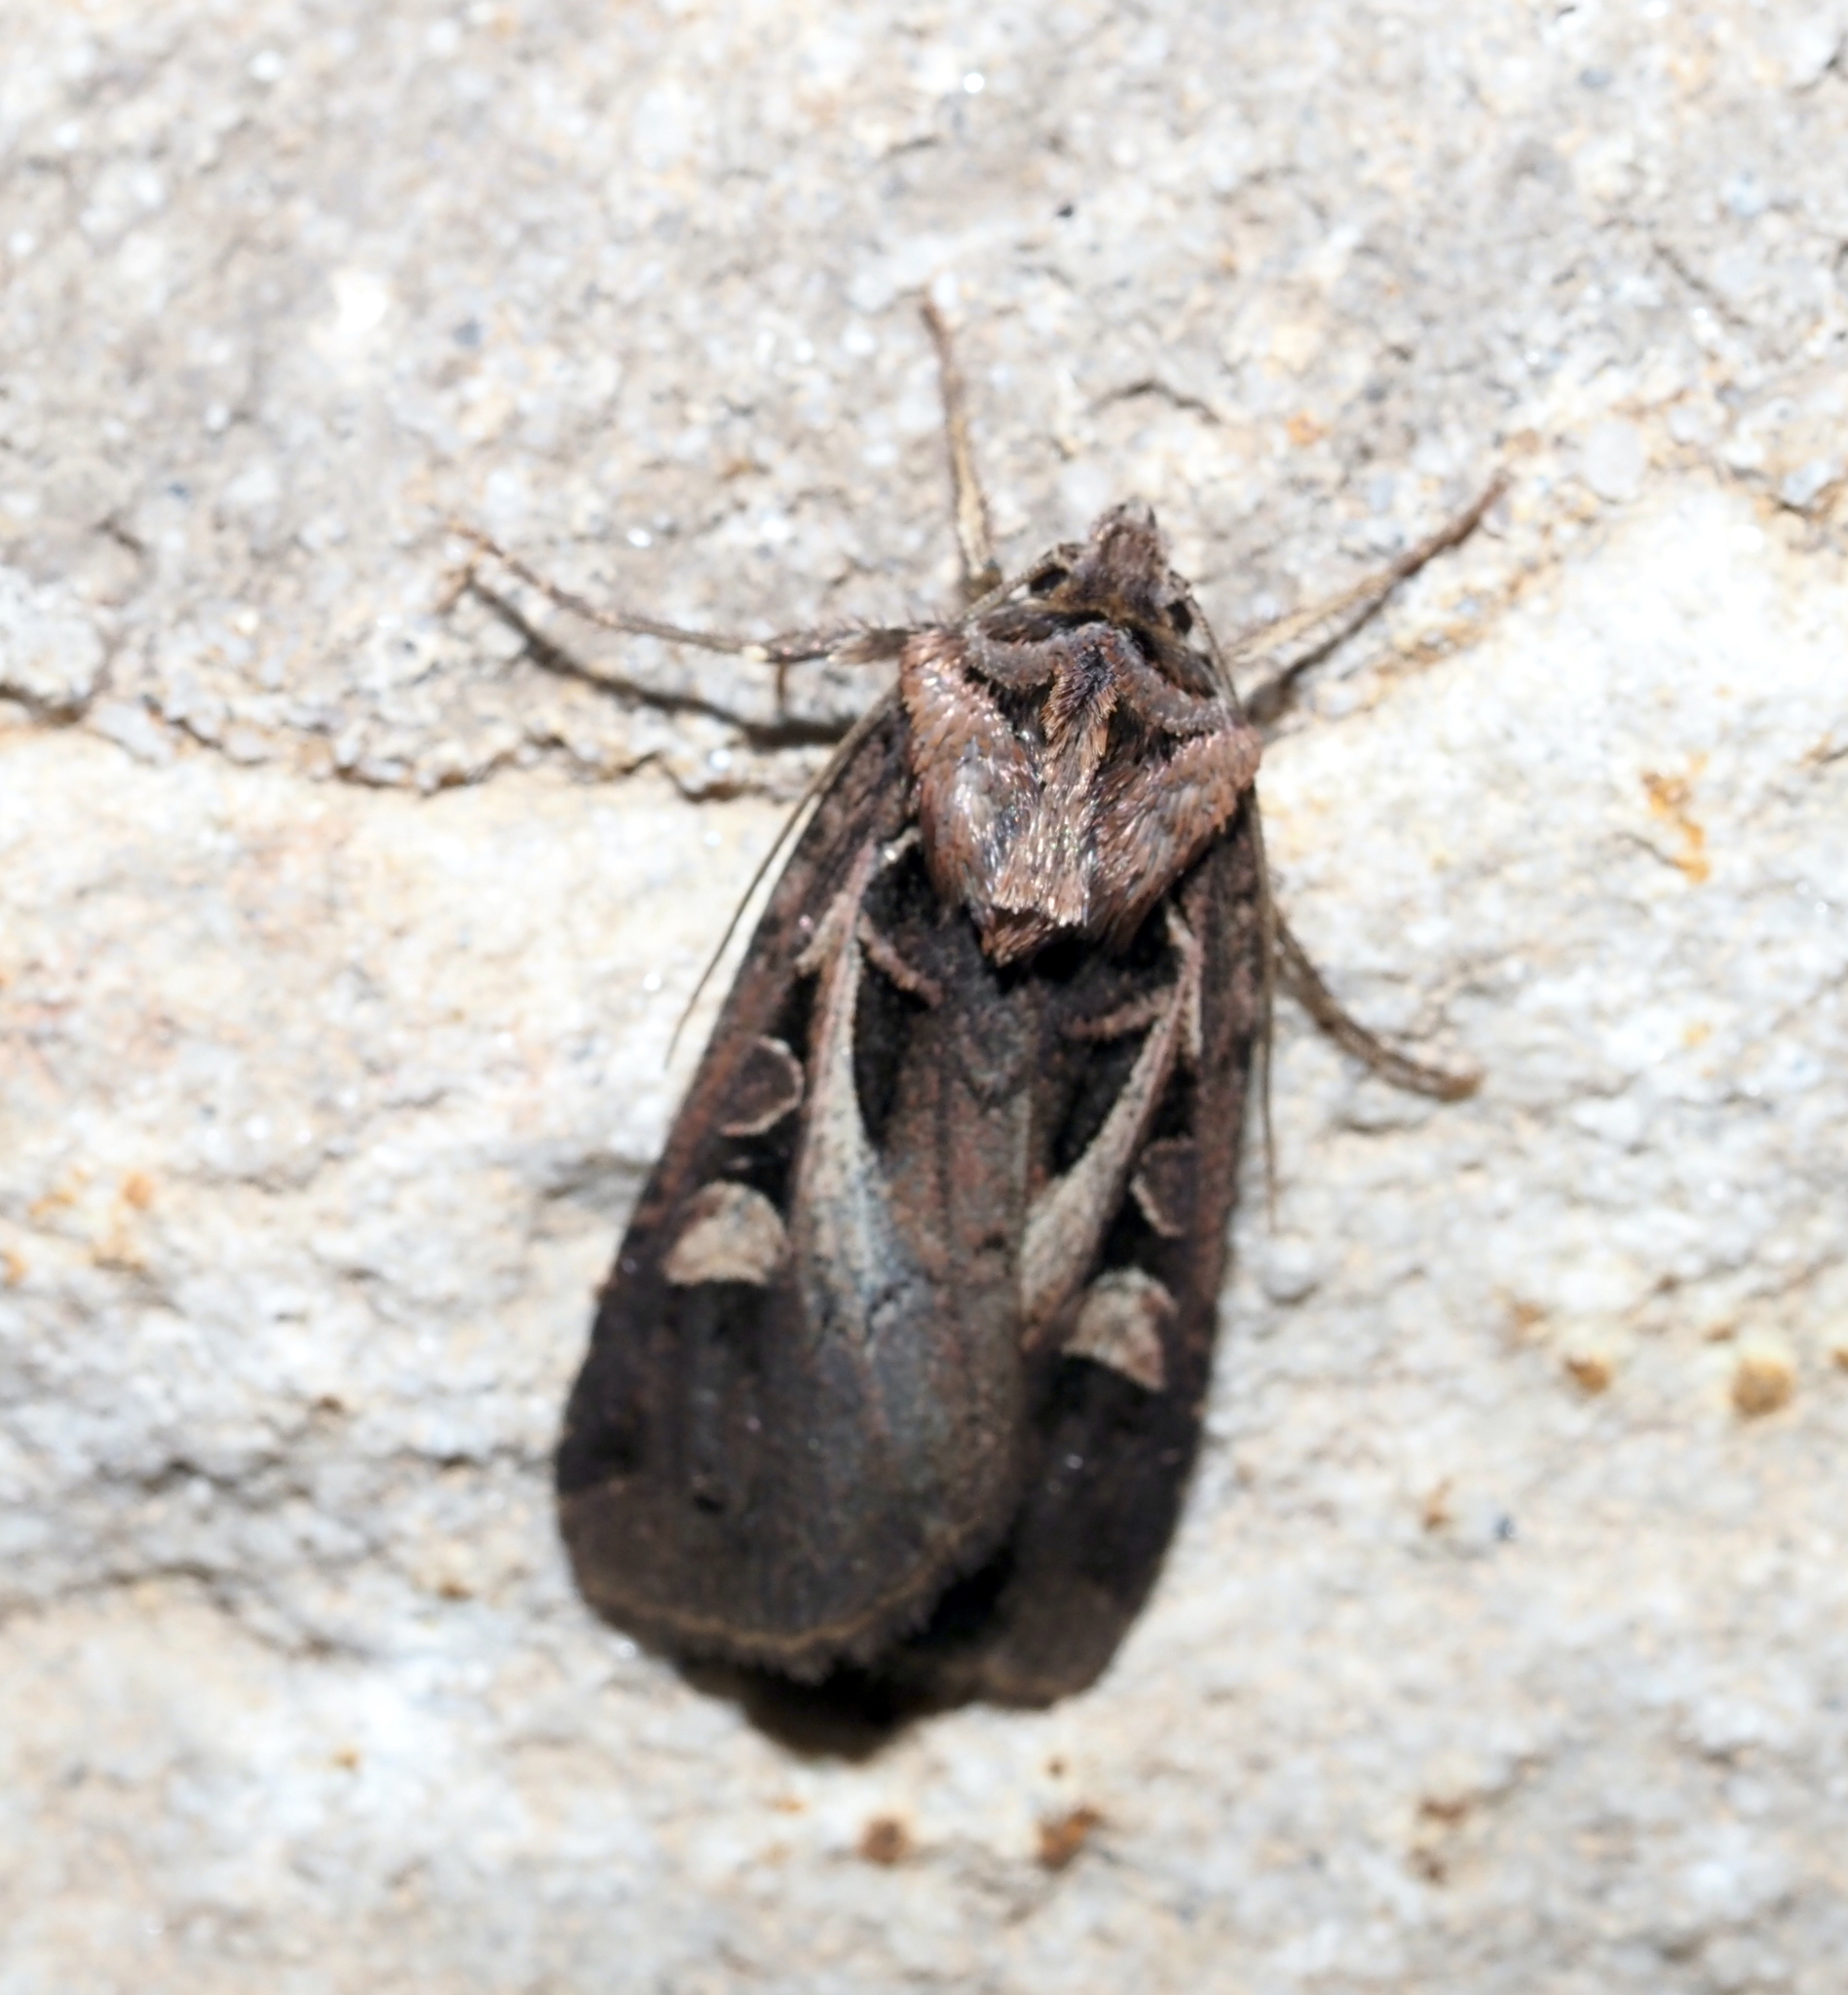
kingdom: Animalia
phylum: Arthropoda
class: Insecta
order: Lepidoptera
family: Noctuidae
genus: Feltia
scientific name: Feltia herilis
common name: Master's dart
